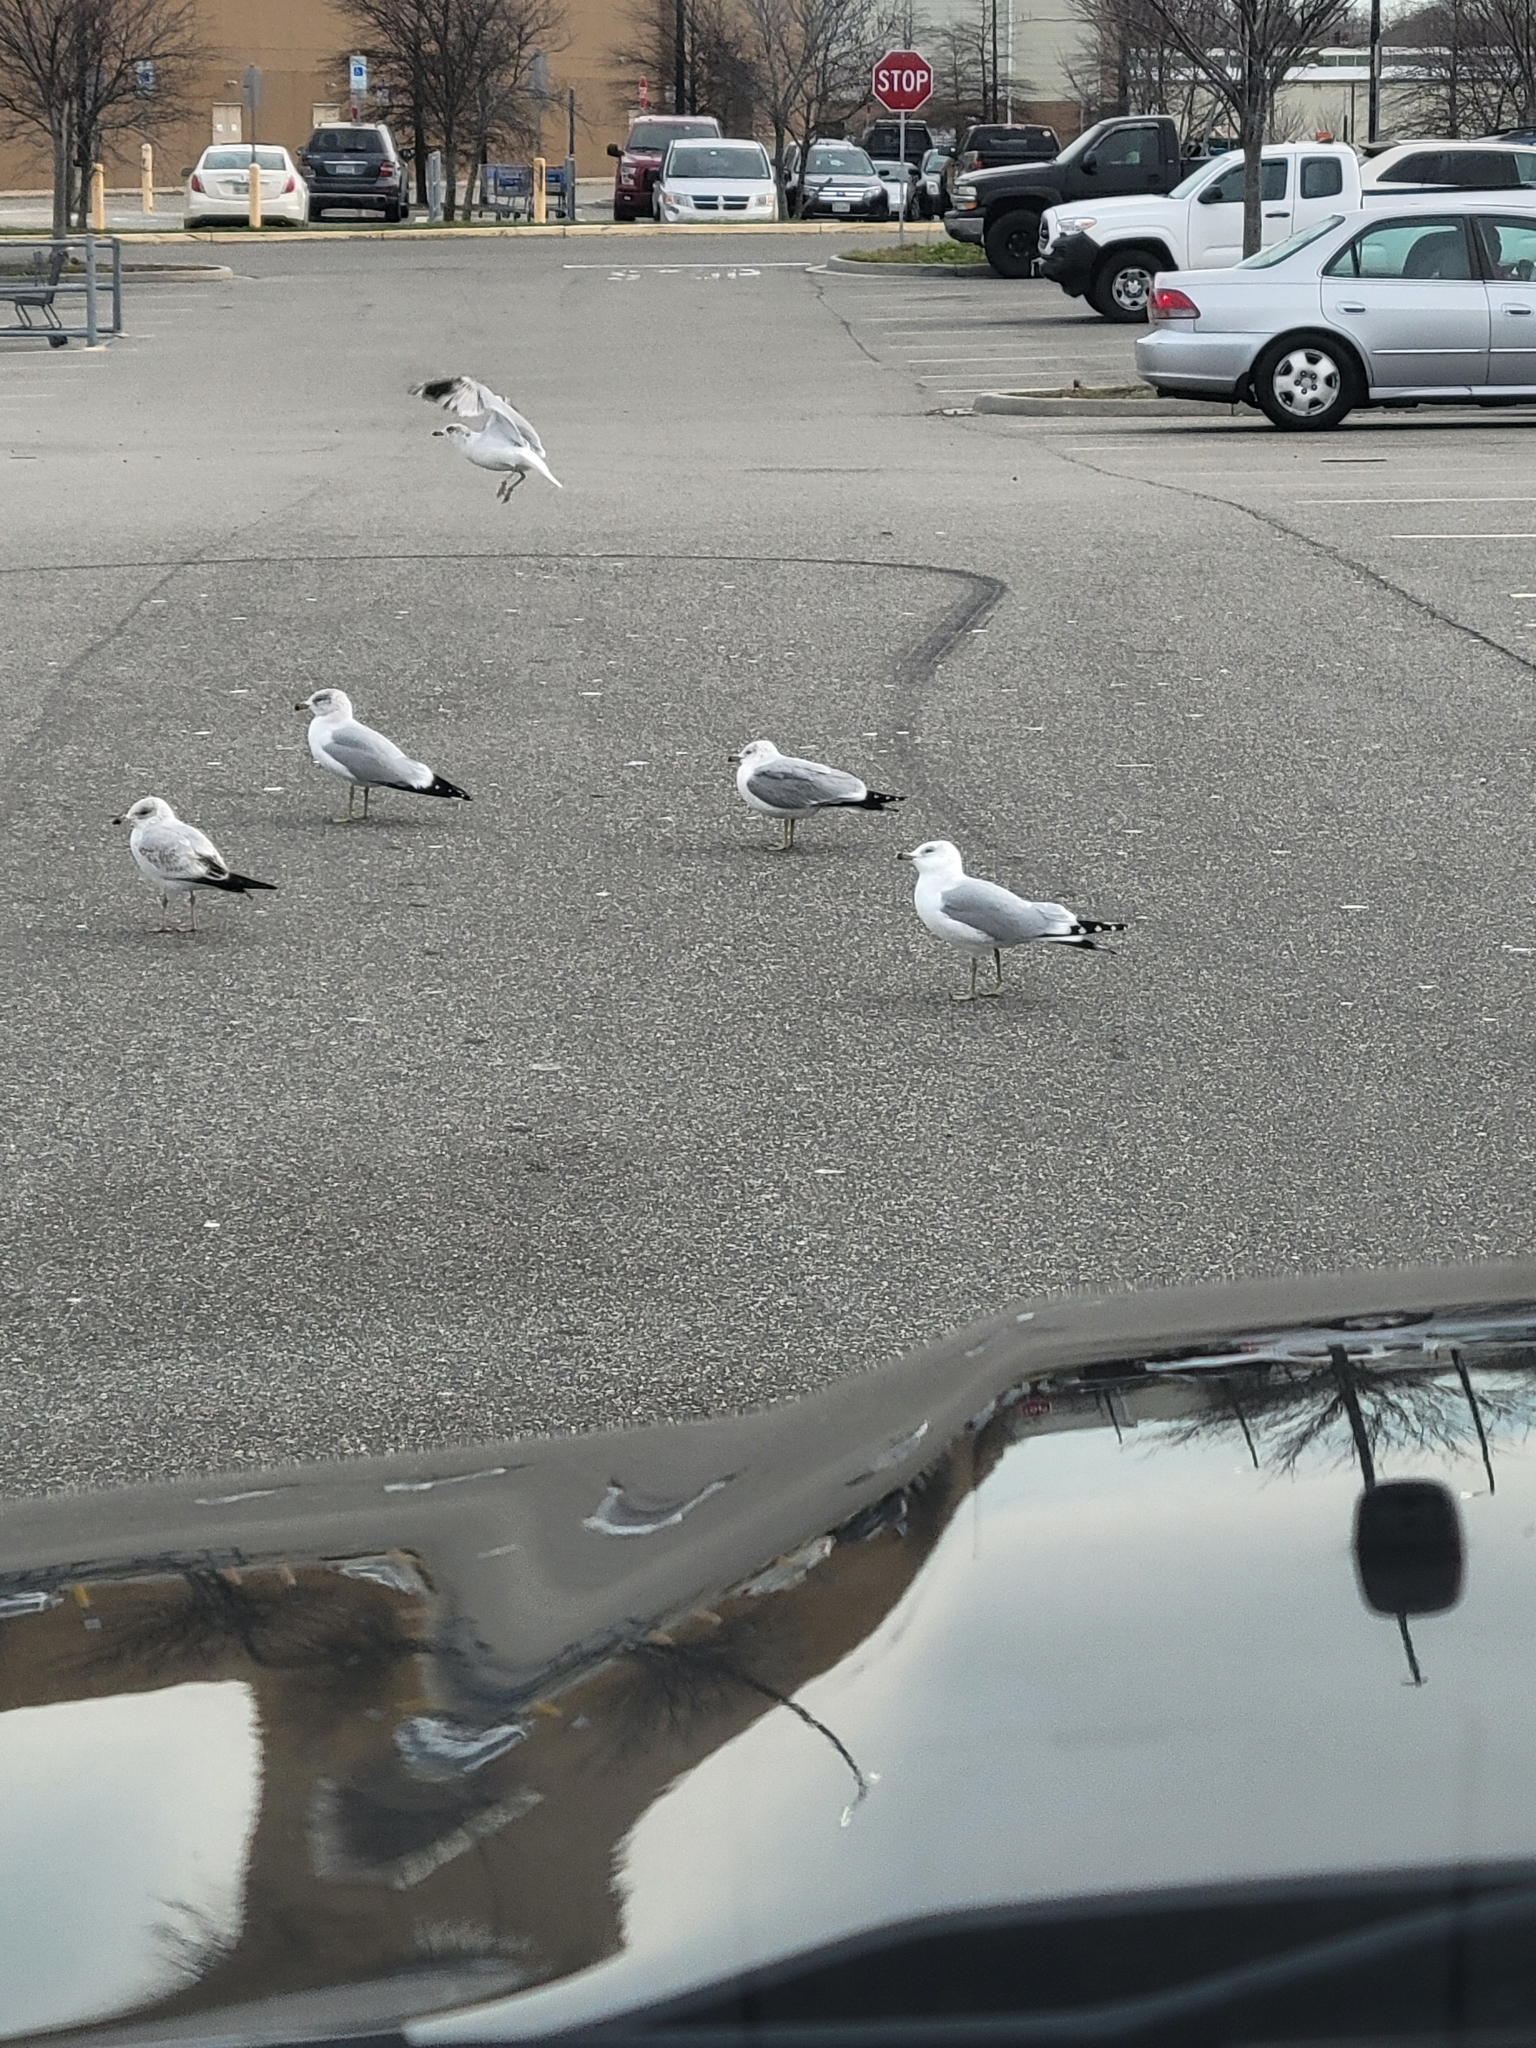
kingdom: Animalia
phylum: Chordata
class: Aves
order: Charadriiformes
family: Laridae
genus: Larus
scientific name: Larus delawarensis
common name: Ring-billed gull
